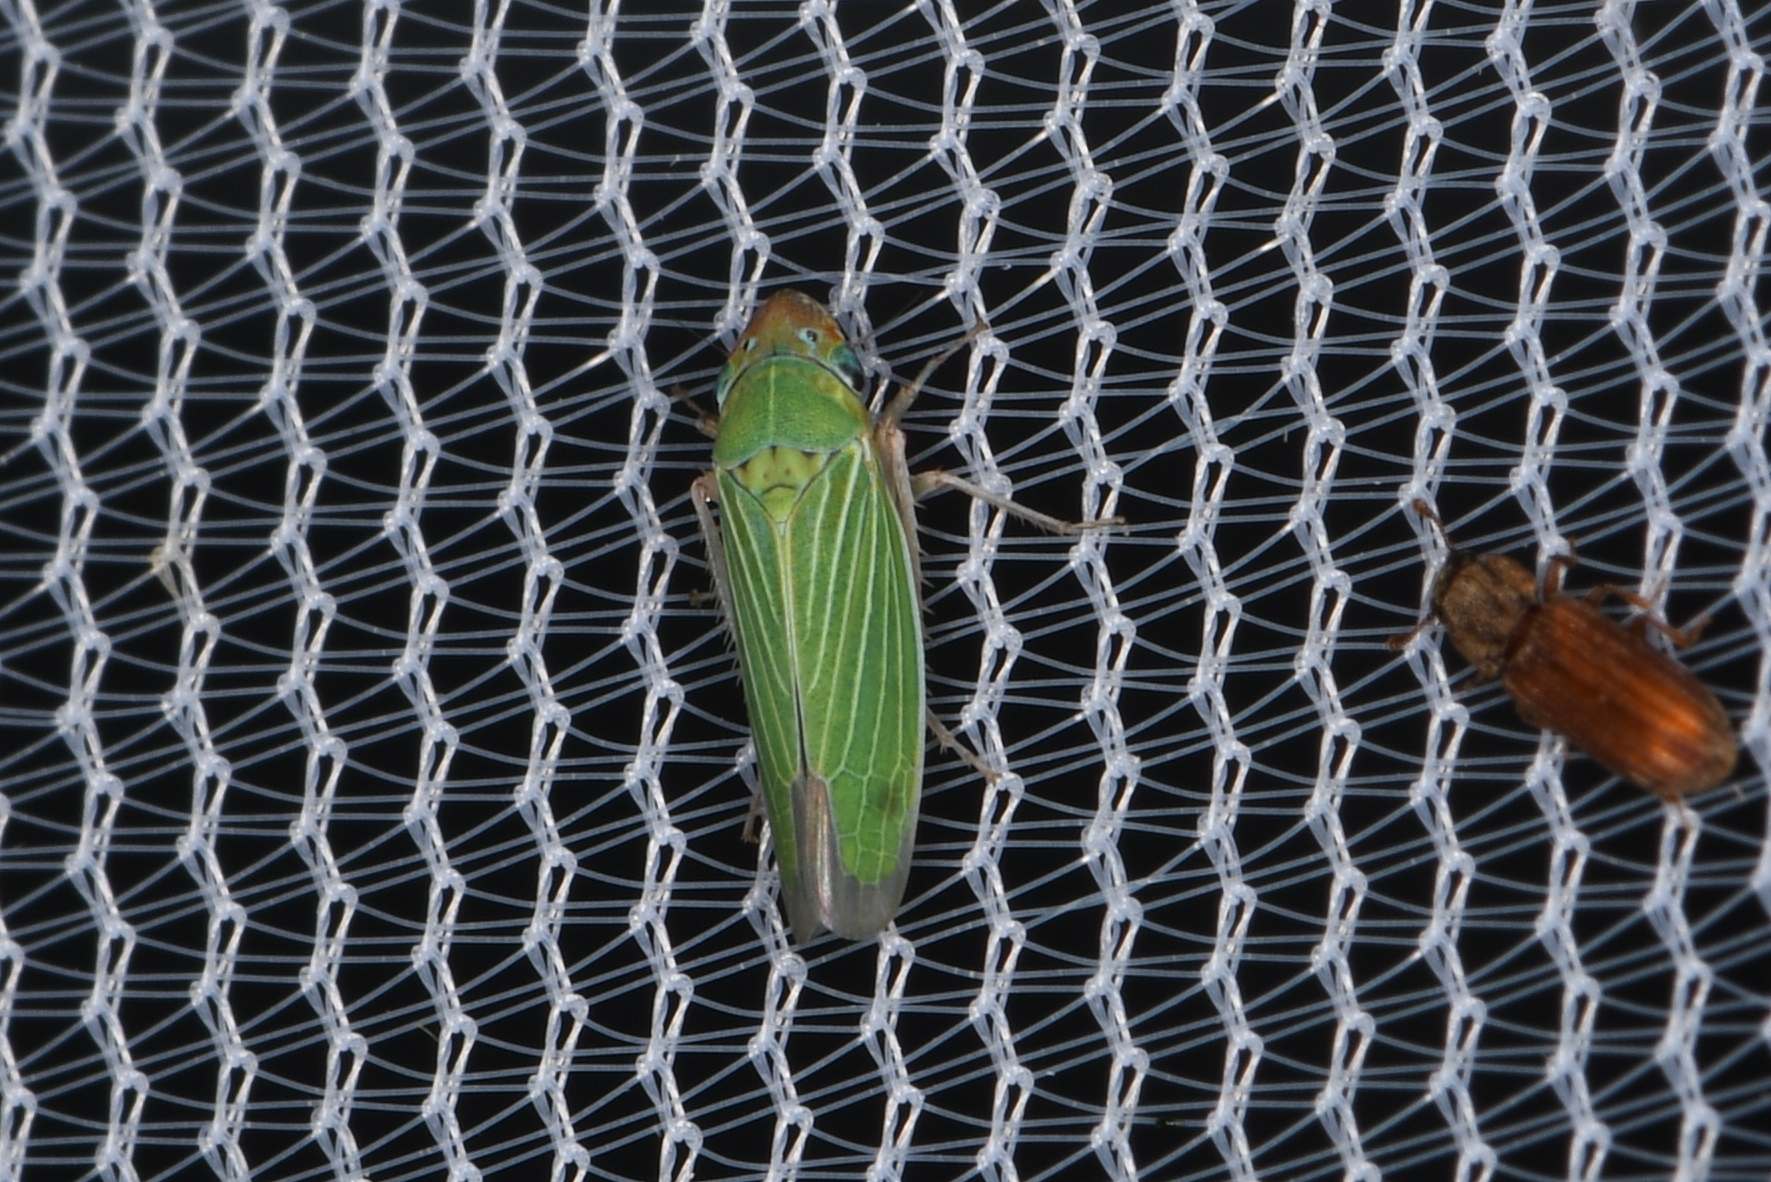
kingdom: Animalia
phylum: Arthropoda
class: Insecta
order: Hemiptera
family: Cicadellidae
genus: Xyphon
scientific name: Xyphon nudum
